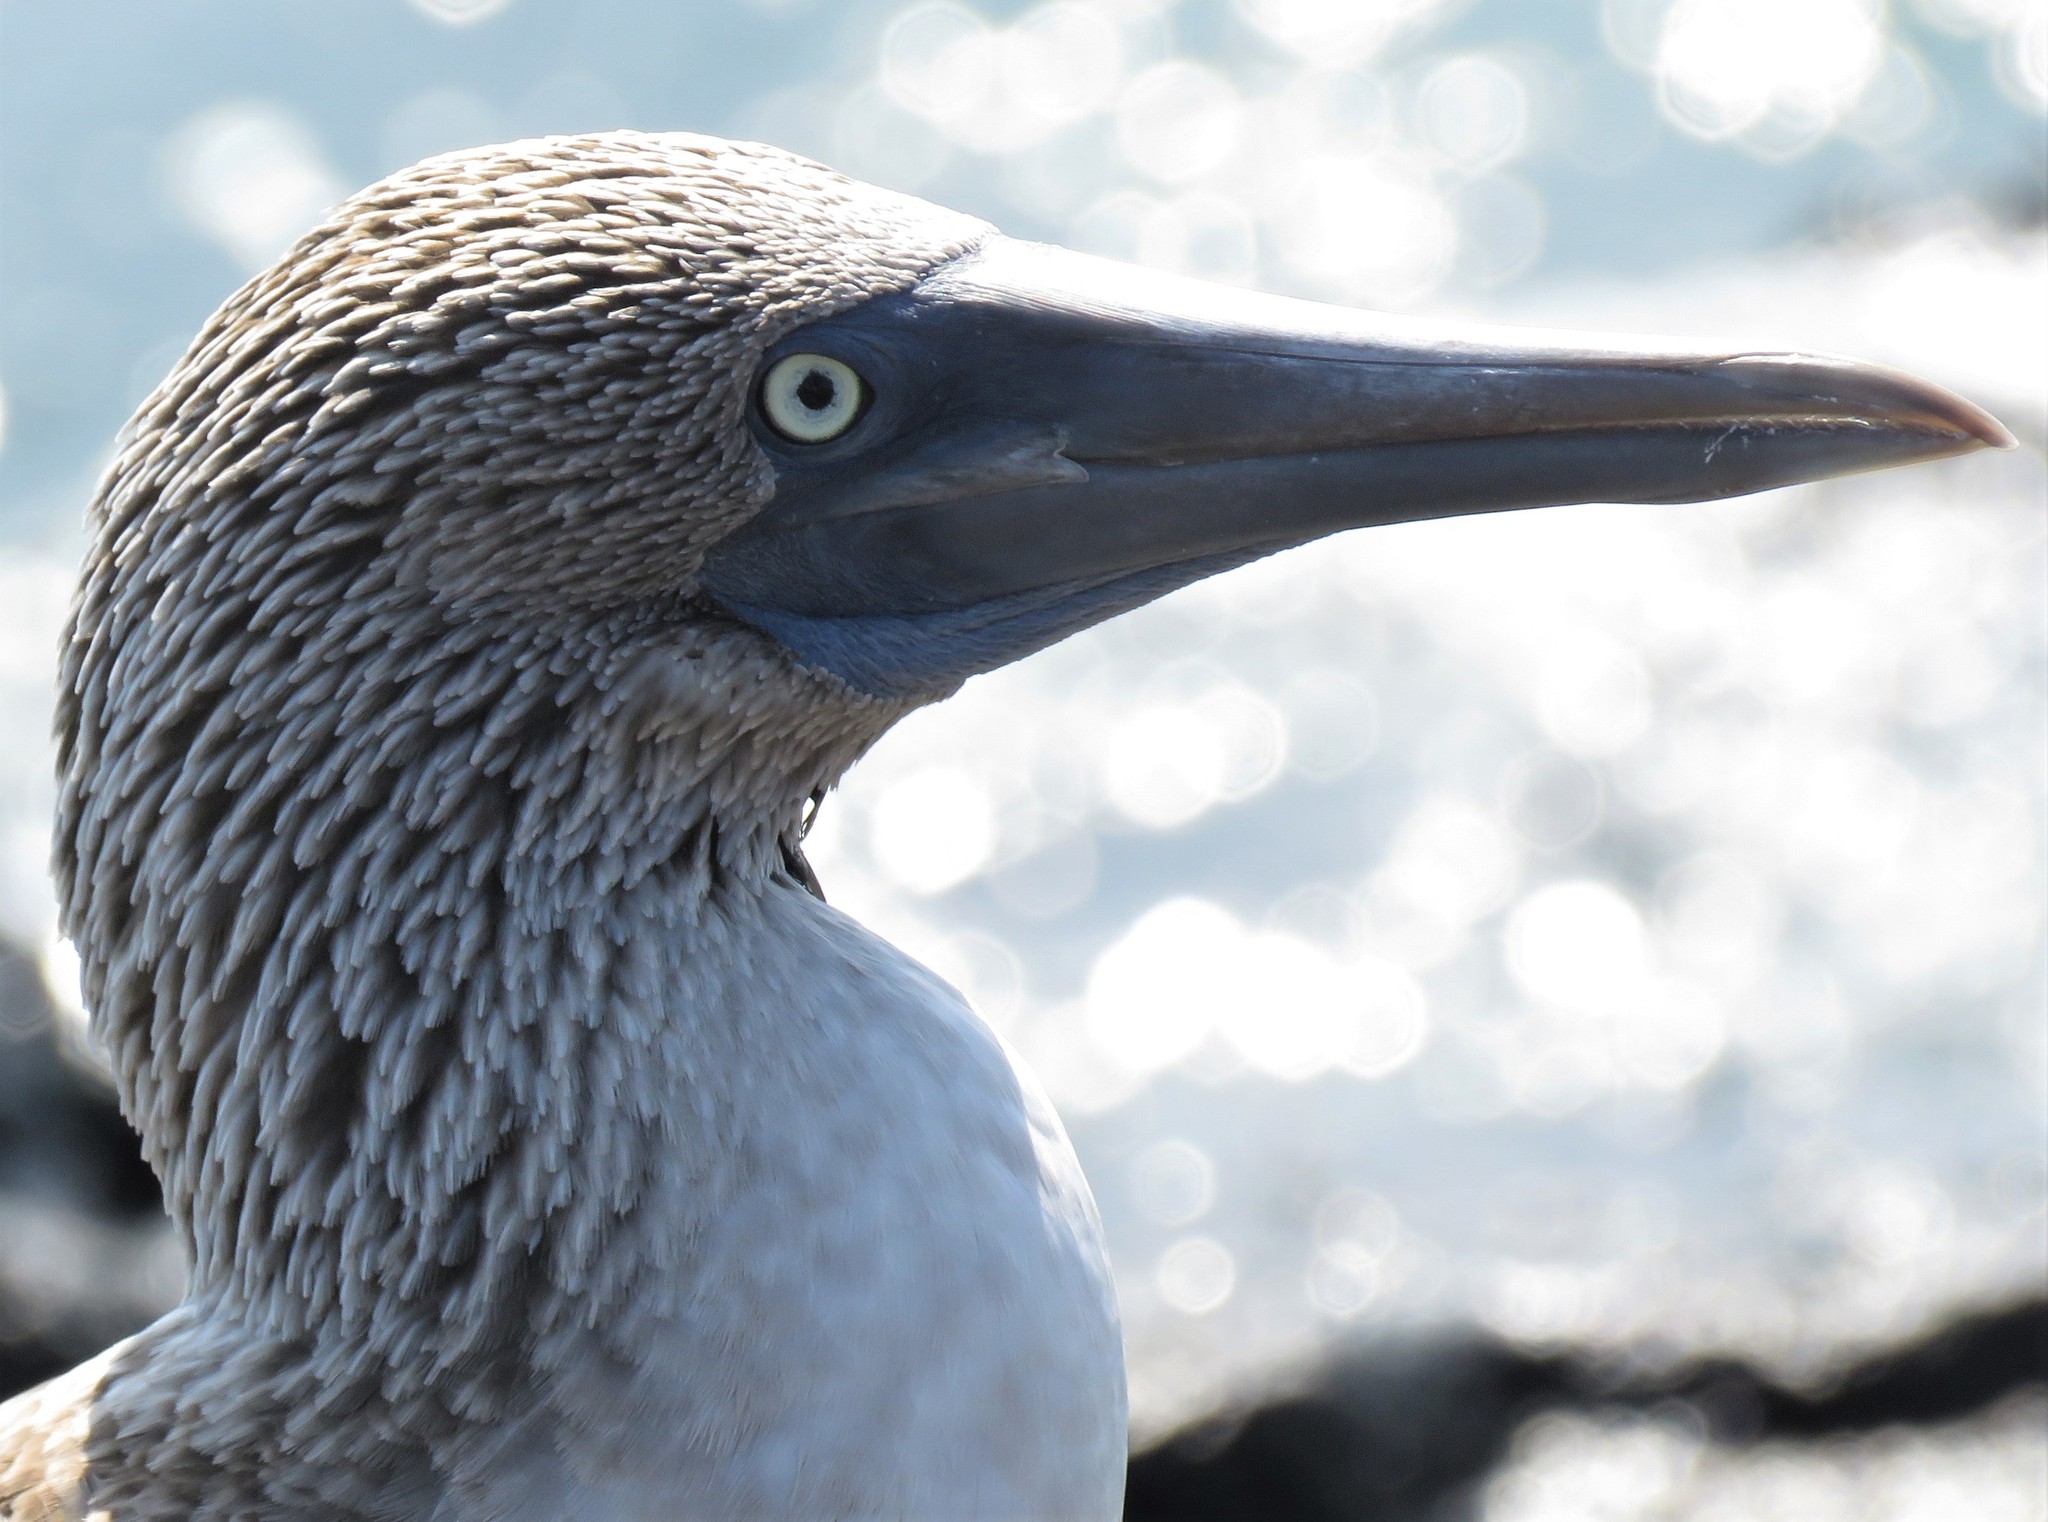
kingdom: Animalia
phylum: Chordata
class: Aves
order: Suliformes
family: Sulidae
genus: Sula
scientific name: Sula nebouxii
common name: Blue-footed booby
